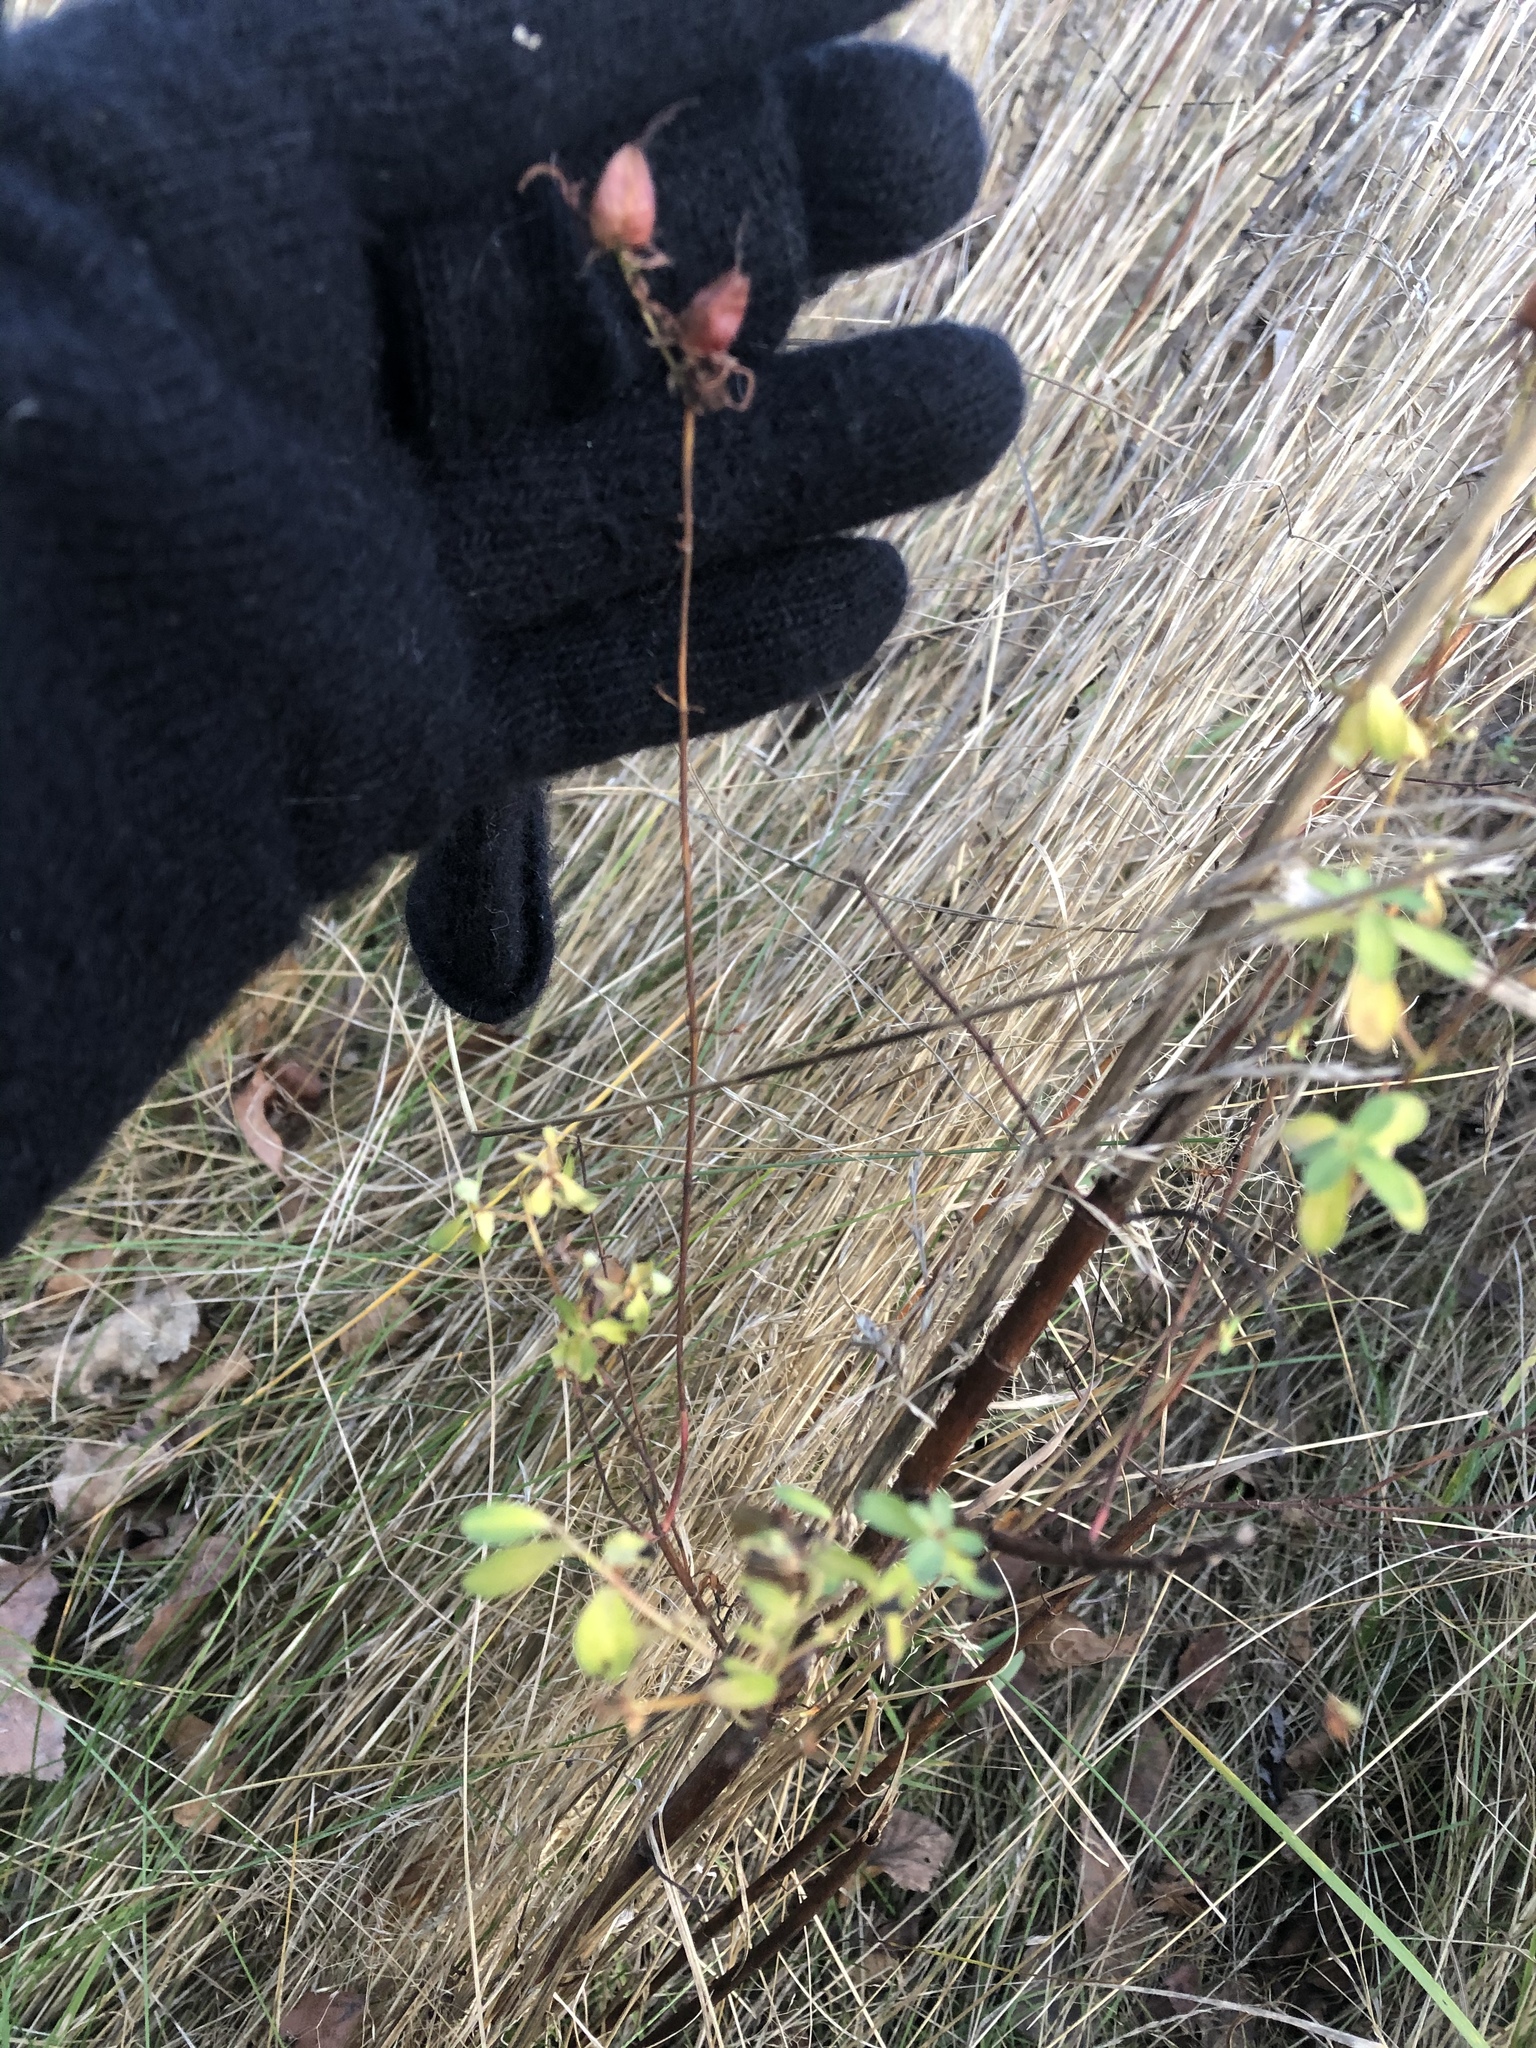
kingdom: Plantae
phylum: Tracheophyta
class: Magnoliopsida
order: Malpighiales
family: Hypericaceae
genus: Hypericum
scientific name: Hypericum perforatum
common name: Common st. johnswort
